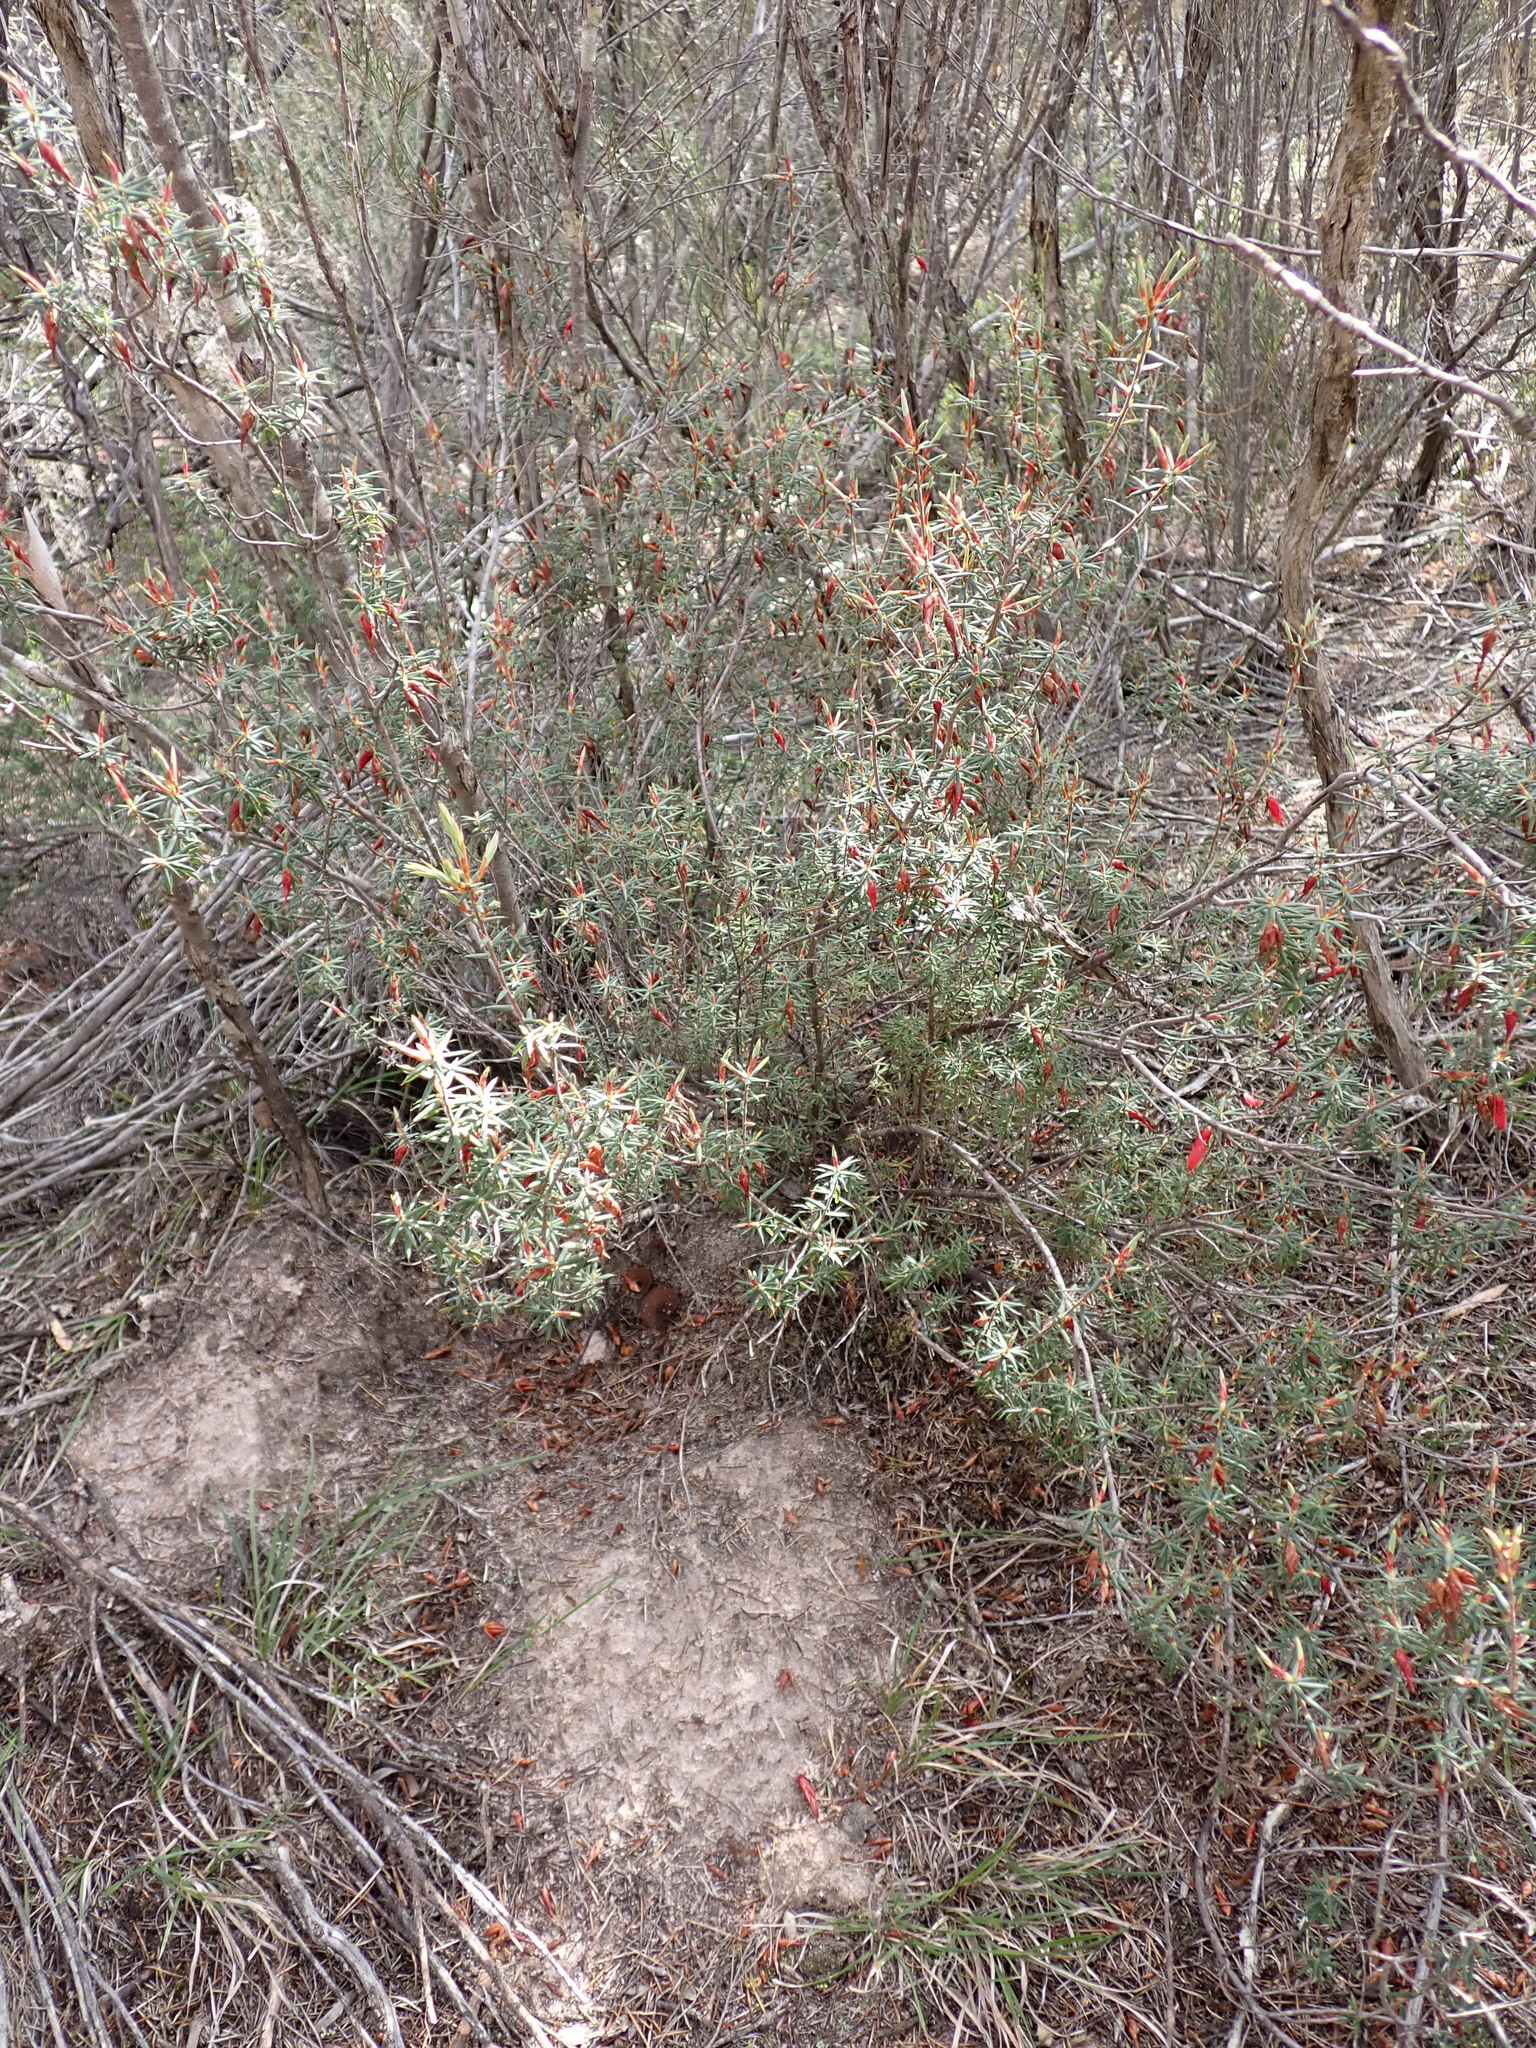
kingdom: Plantae
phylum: Tracheophyta
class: Magnoliopsida
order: Ericales
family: Ericaceae
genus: Stenanthera
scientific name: Stenanthera conostephioides
